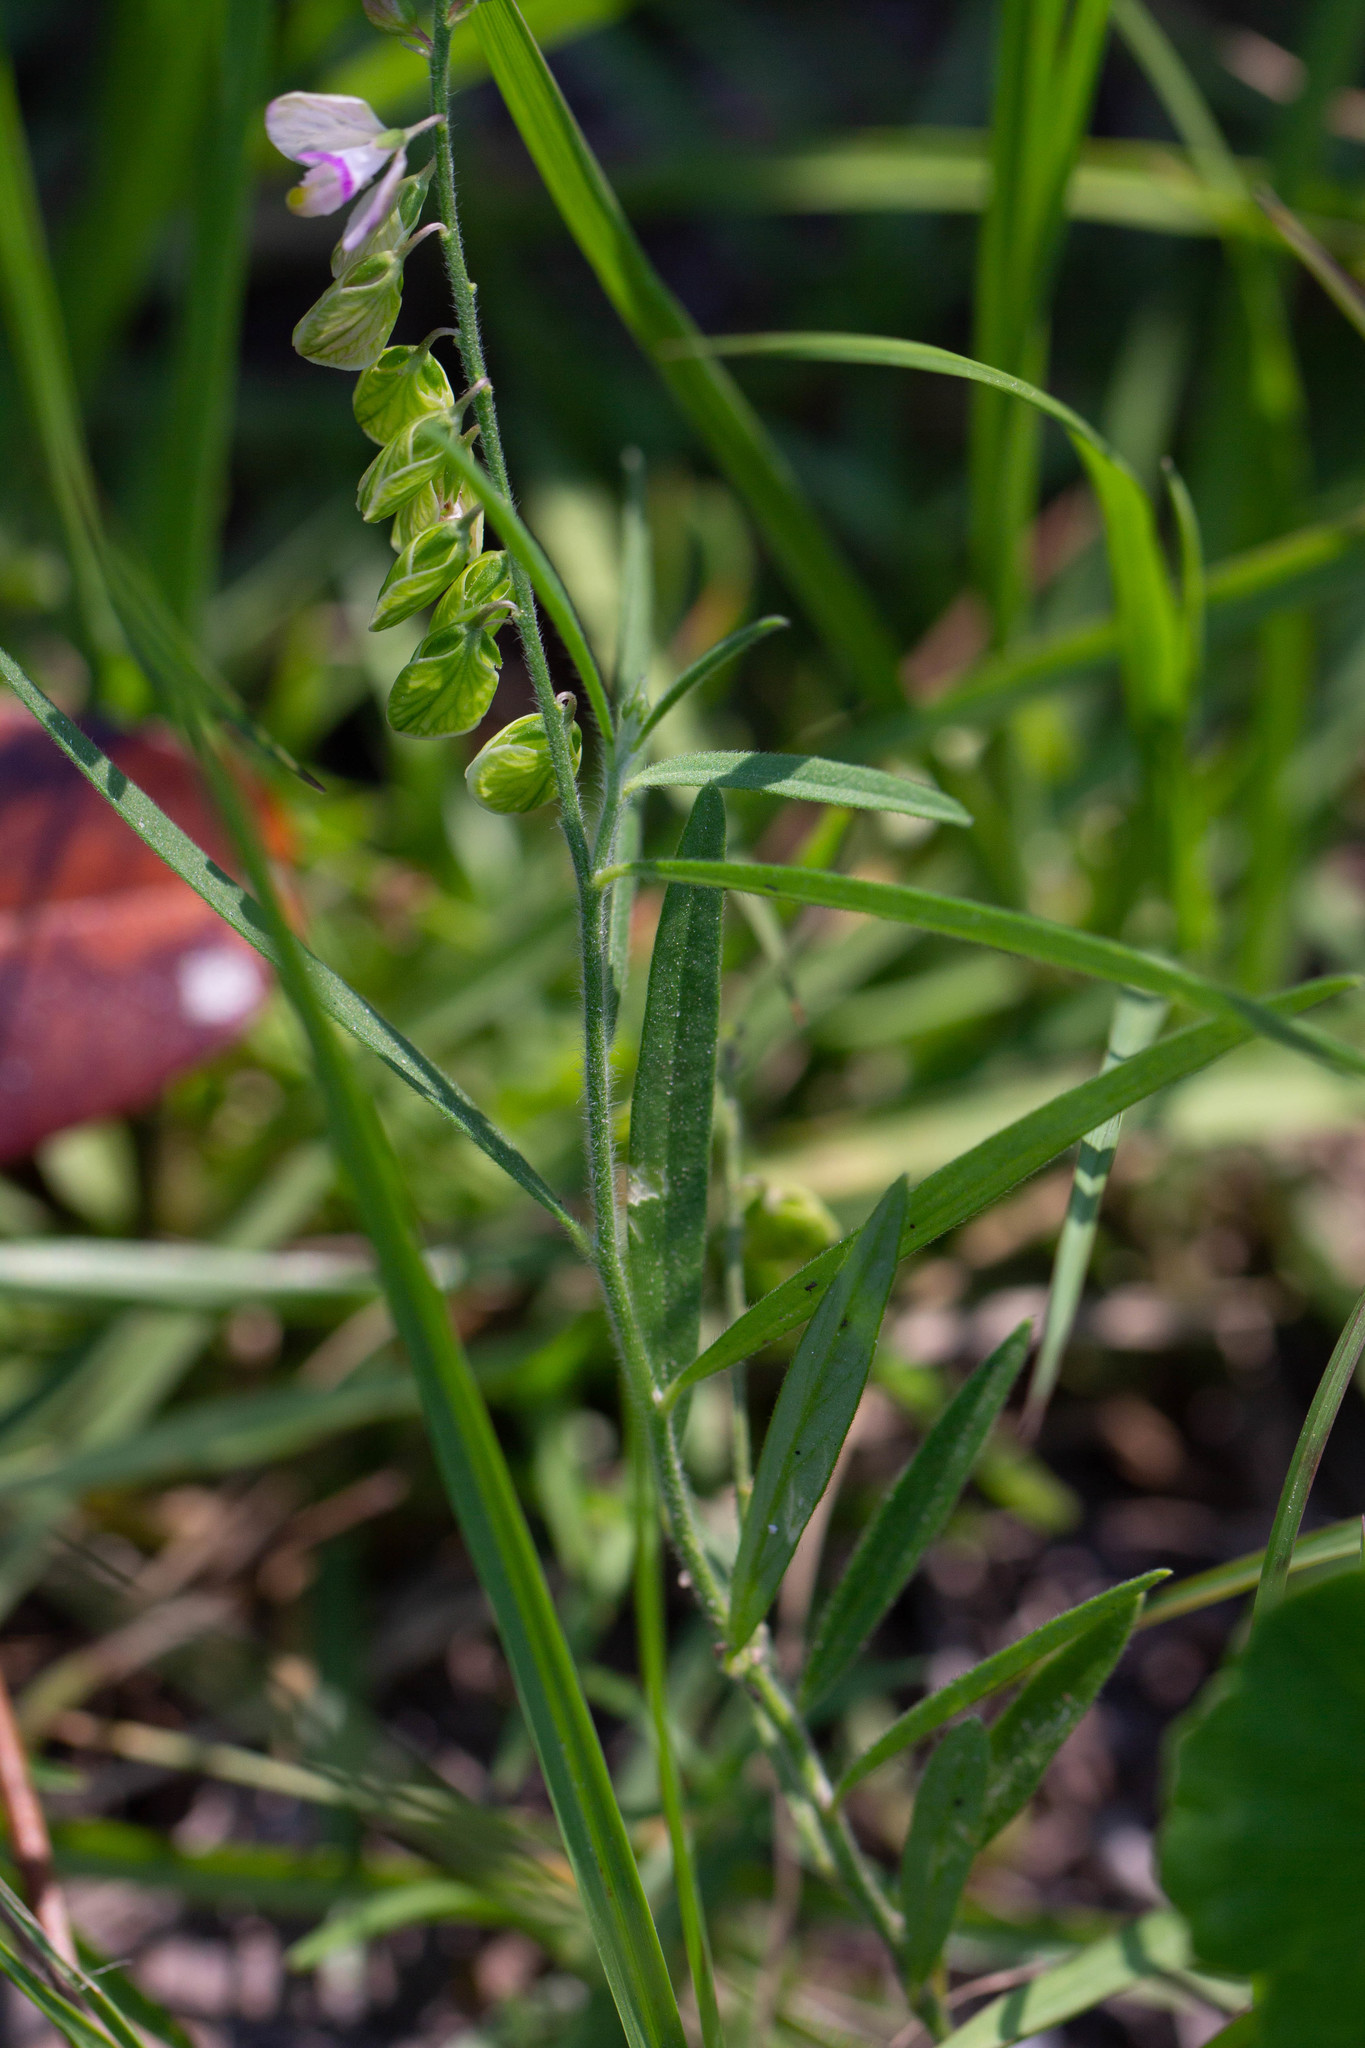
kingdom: Plantae
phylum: Tracheophyta
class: Magnoliopsida
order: Fabales
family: Polygalaceae
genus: Asemeia
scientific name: Asemeia grandiflora
